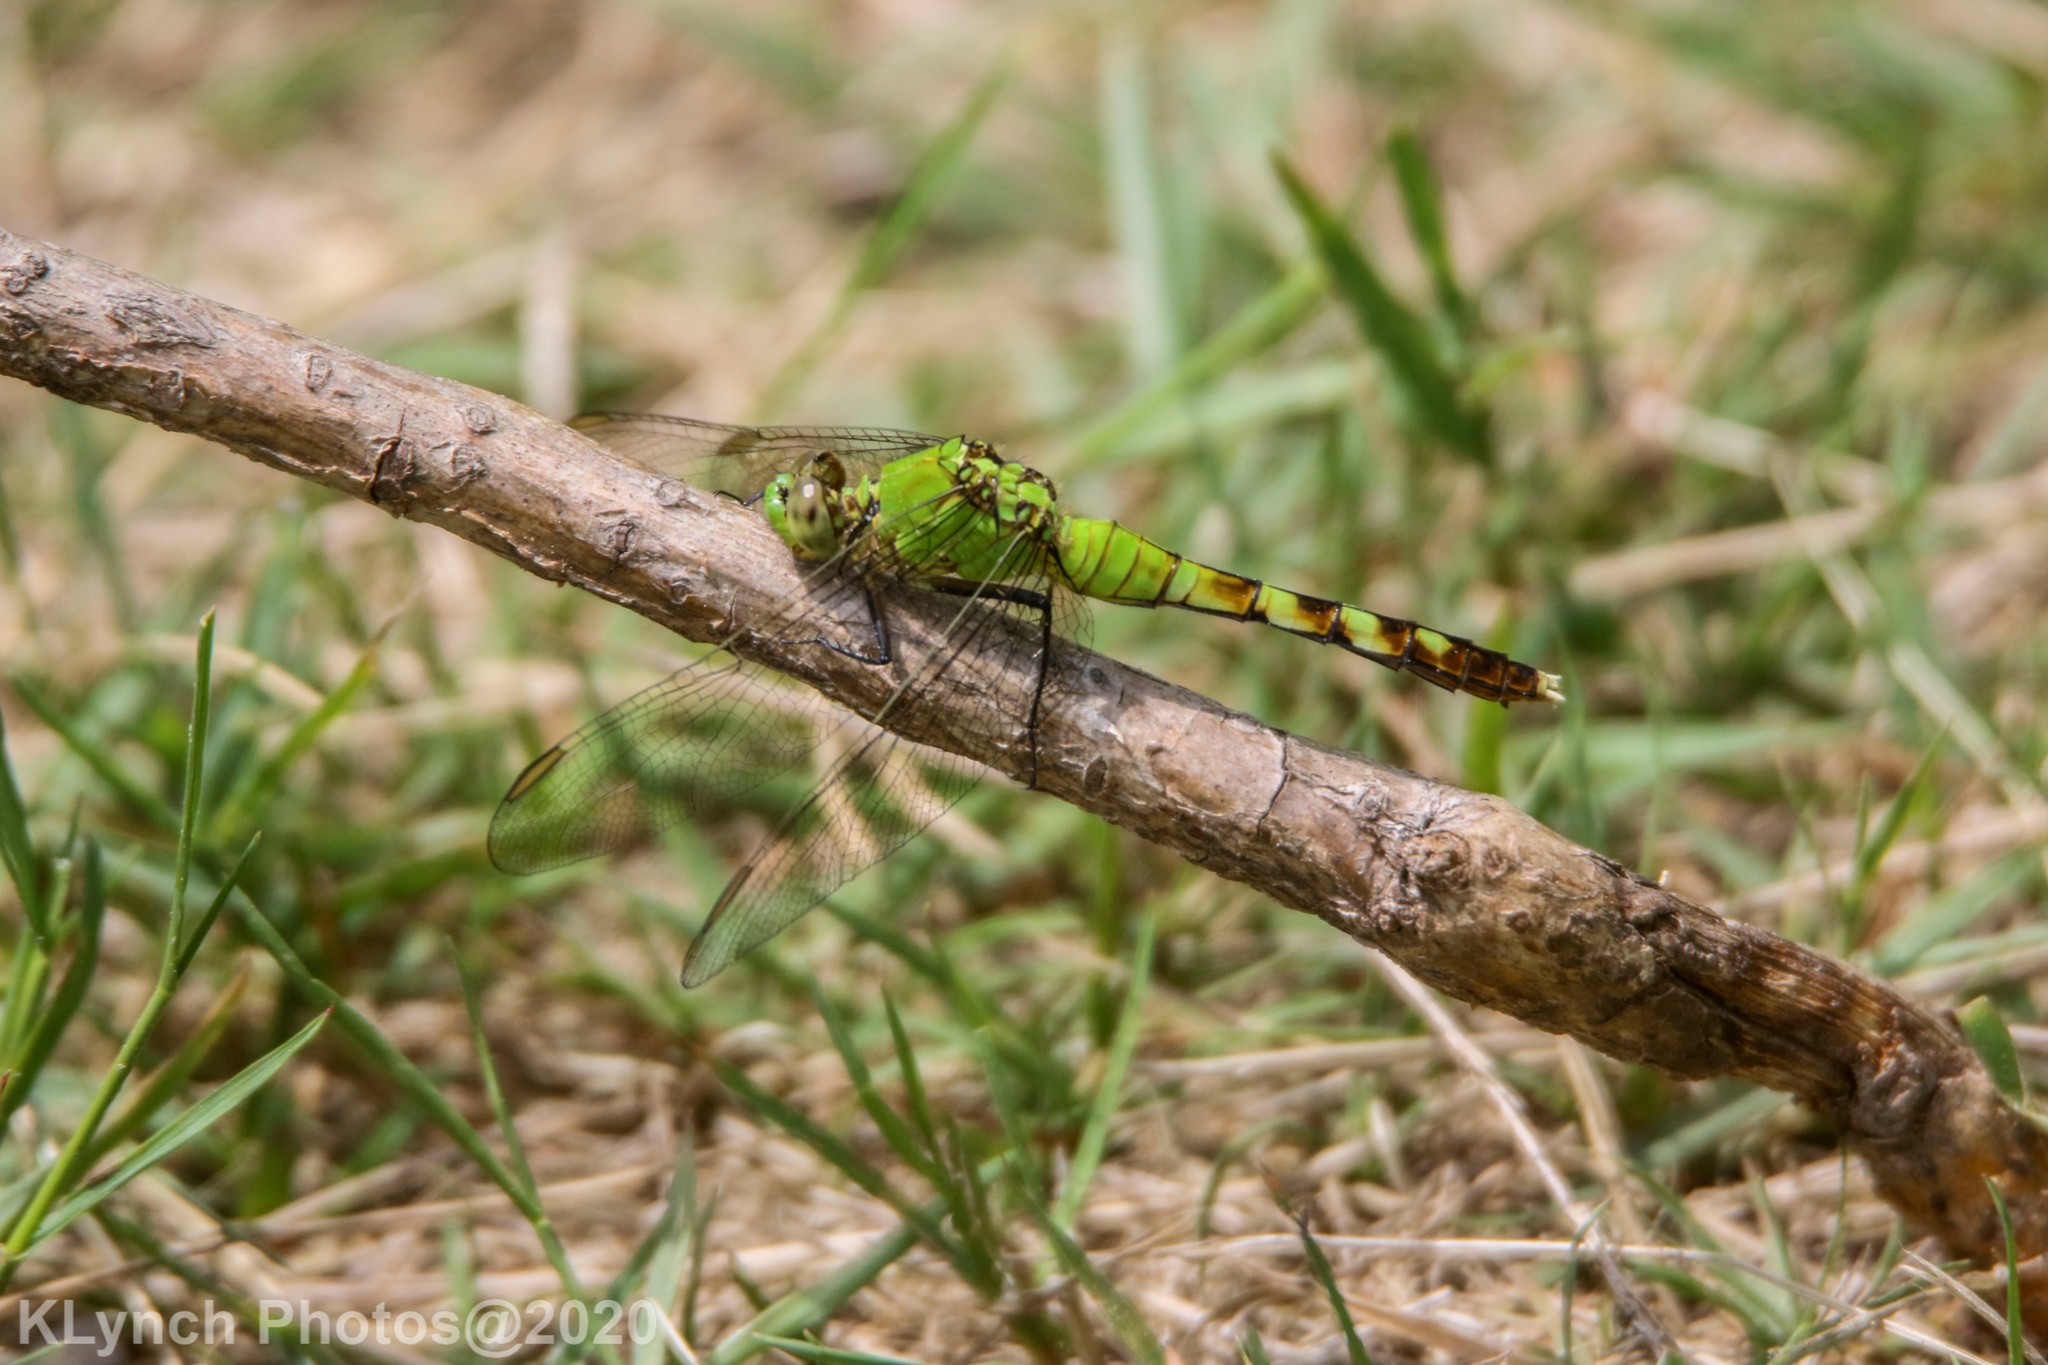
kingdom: Animalia
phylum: Arthropoda
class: Insecta
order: Odonata
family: Libellulidae
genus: Erythemis
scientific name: Erythemis simplicicollis
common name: Eastern pondhawk
